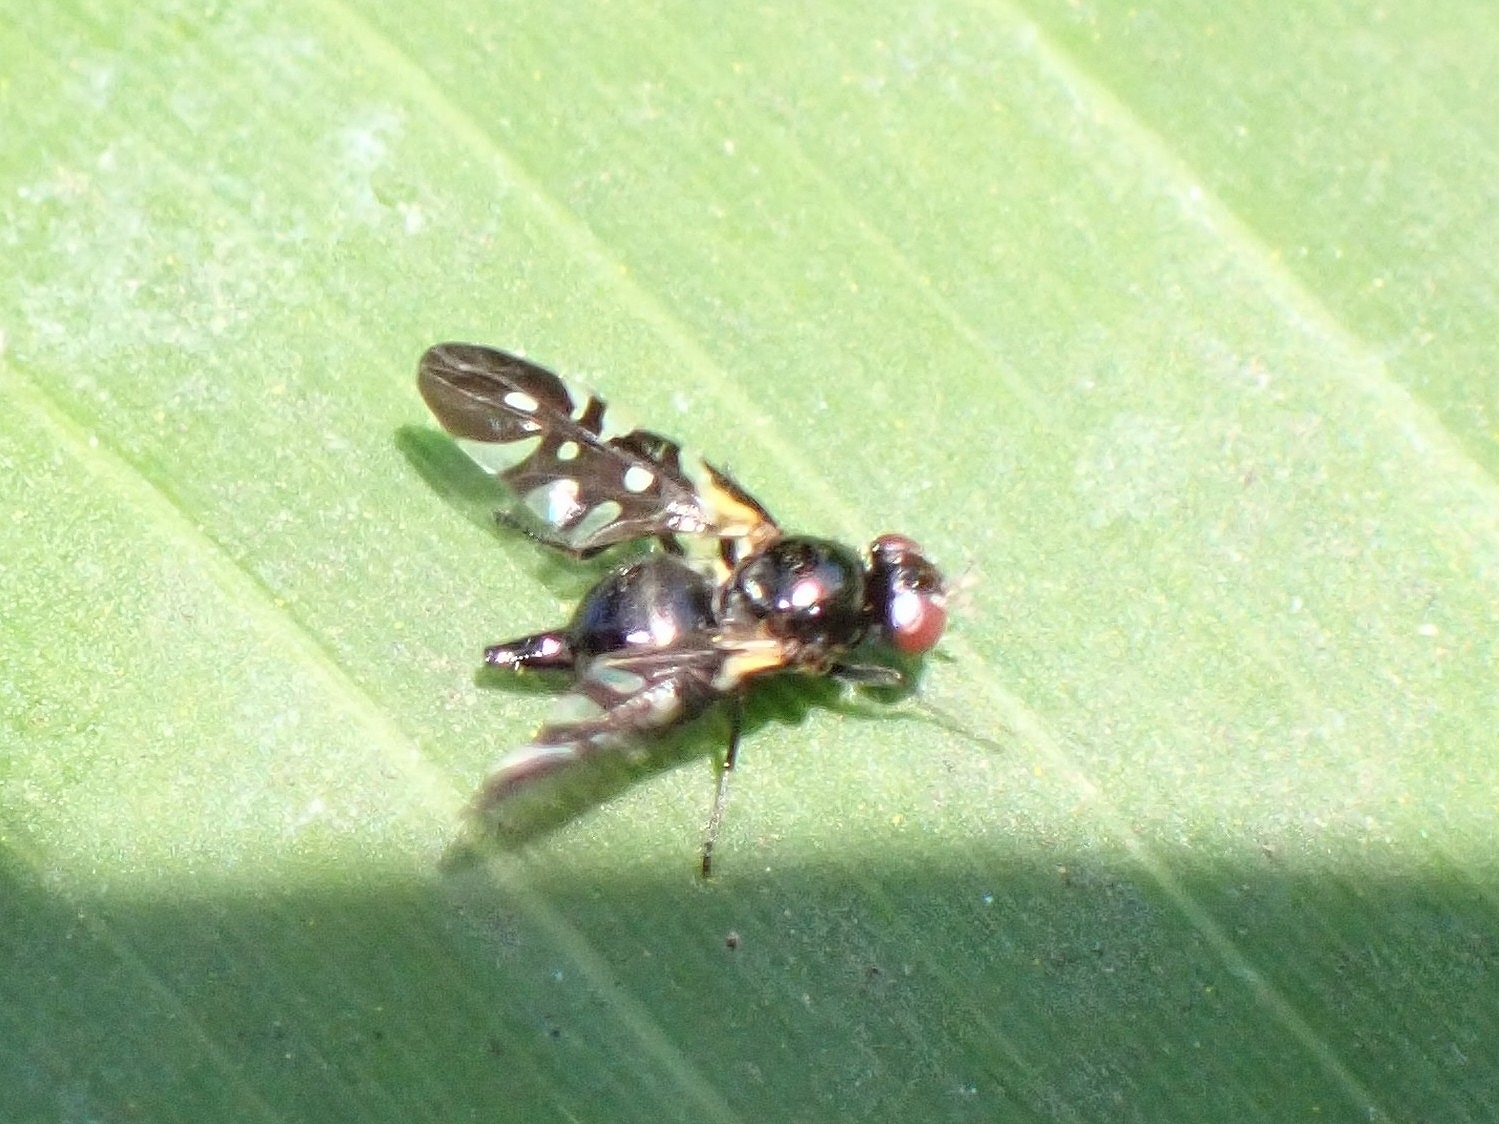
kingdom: Animalia
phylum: Arthropoda
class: Insecta
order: Diptera
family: Tephritidae
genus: Oxyaciura
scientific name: Oxyaciura tibialis
